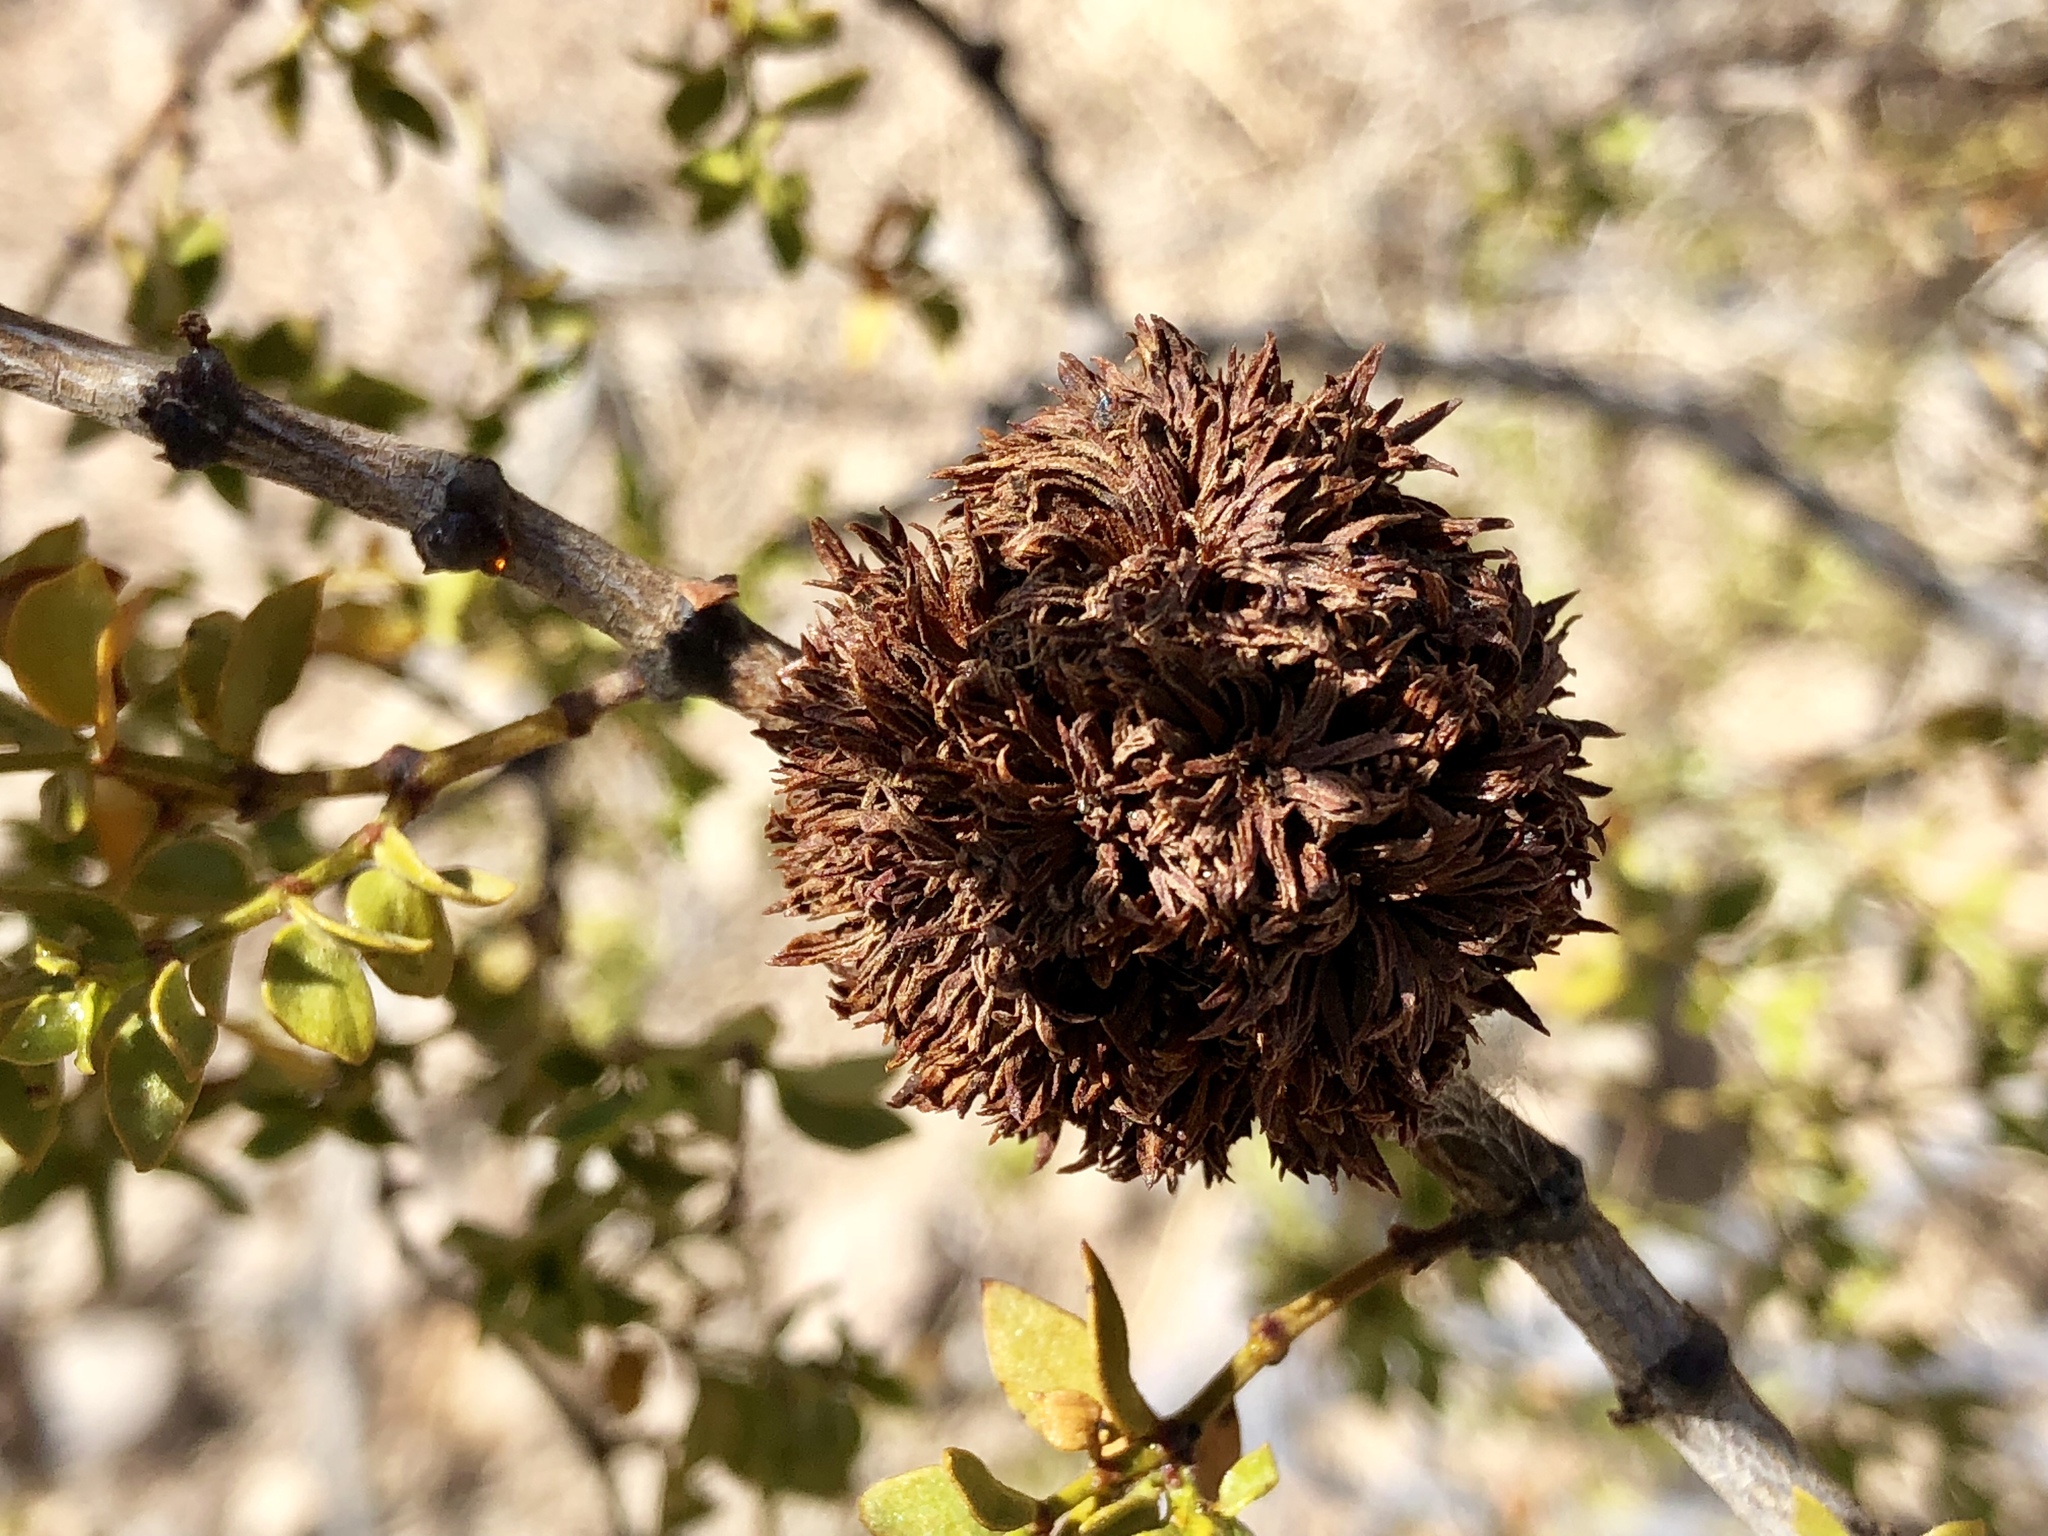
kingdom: Animalia
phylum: Arthropoda
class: Insecta
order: Diptera
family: Cecidomyiidae
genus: Asphondylia
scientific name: Asphondylia auripila
